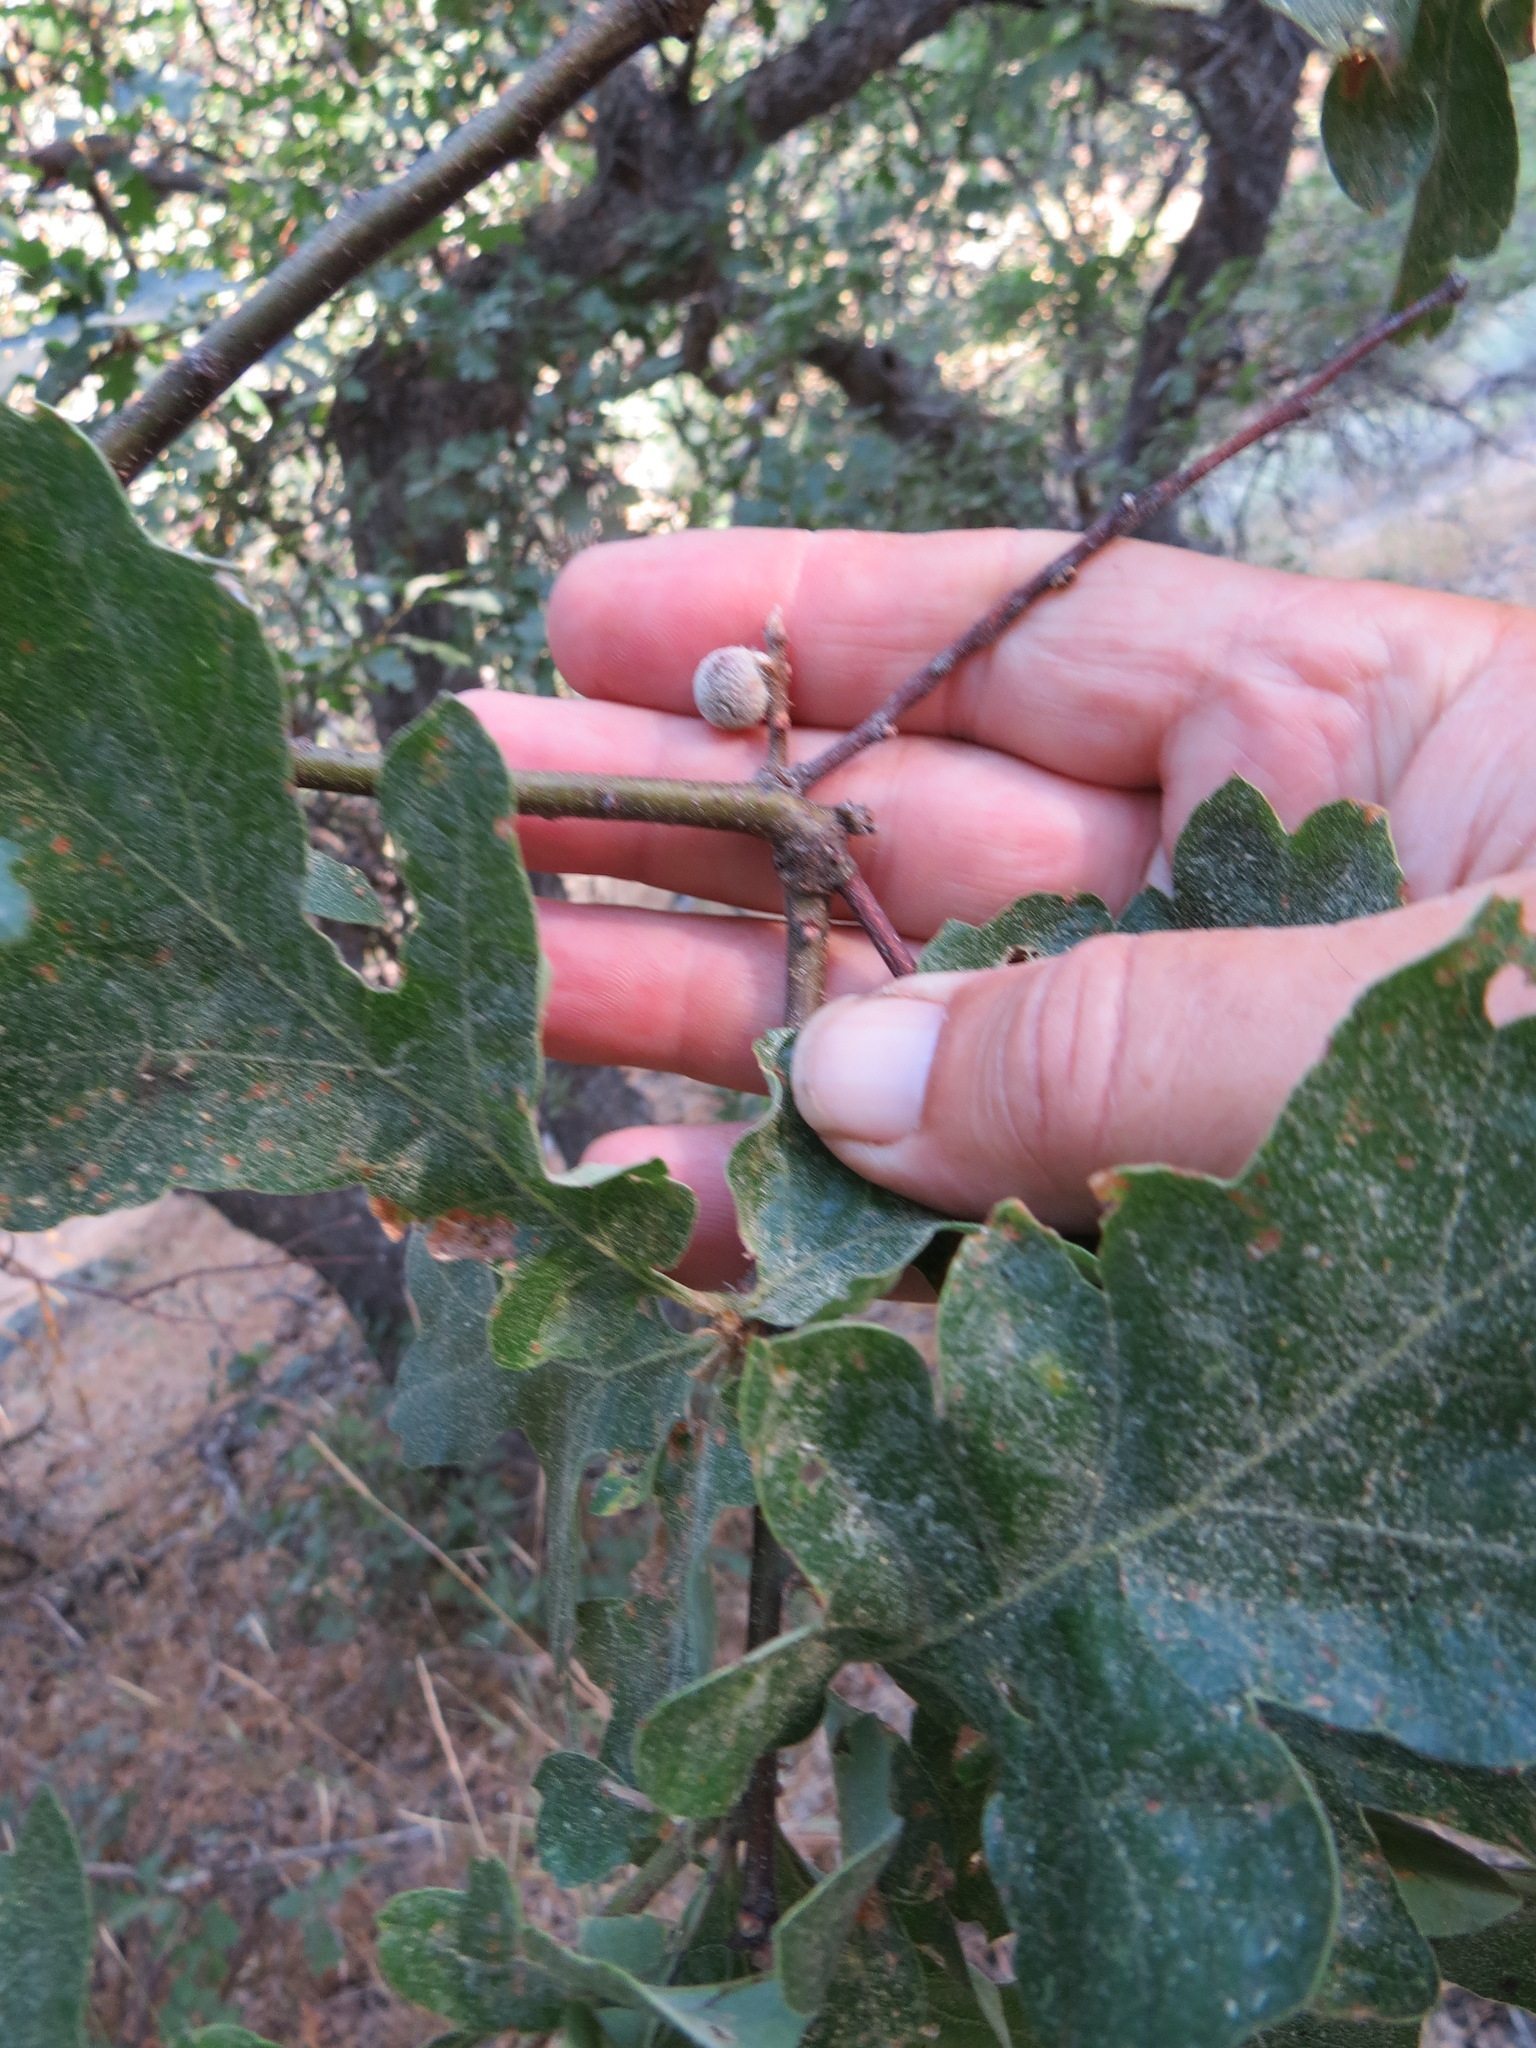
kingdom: Animalia
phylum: Arthropoda
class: Insecta
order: Hymenoptera
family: Cynipidae
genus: Burnettweldia
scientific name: Burnettweldia
